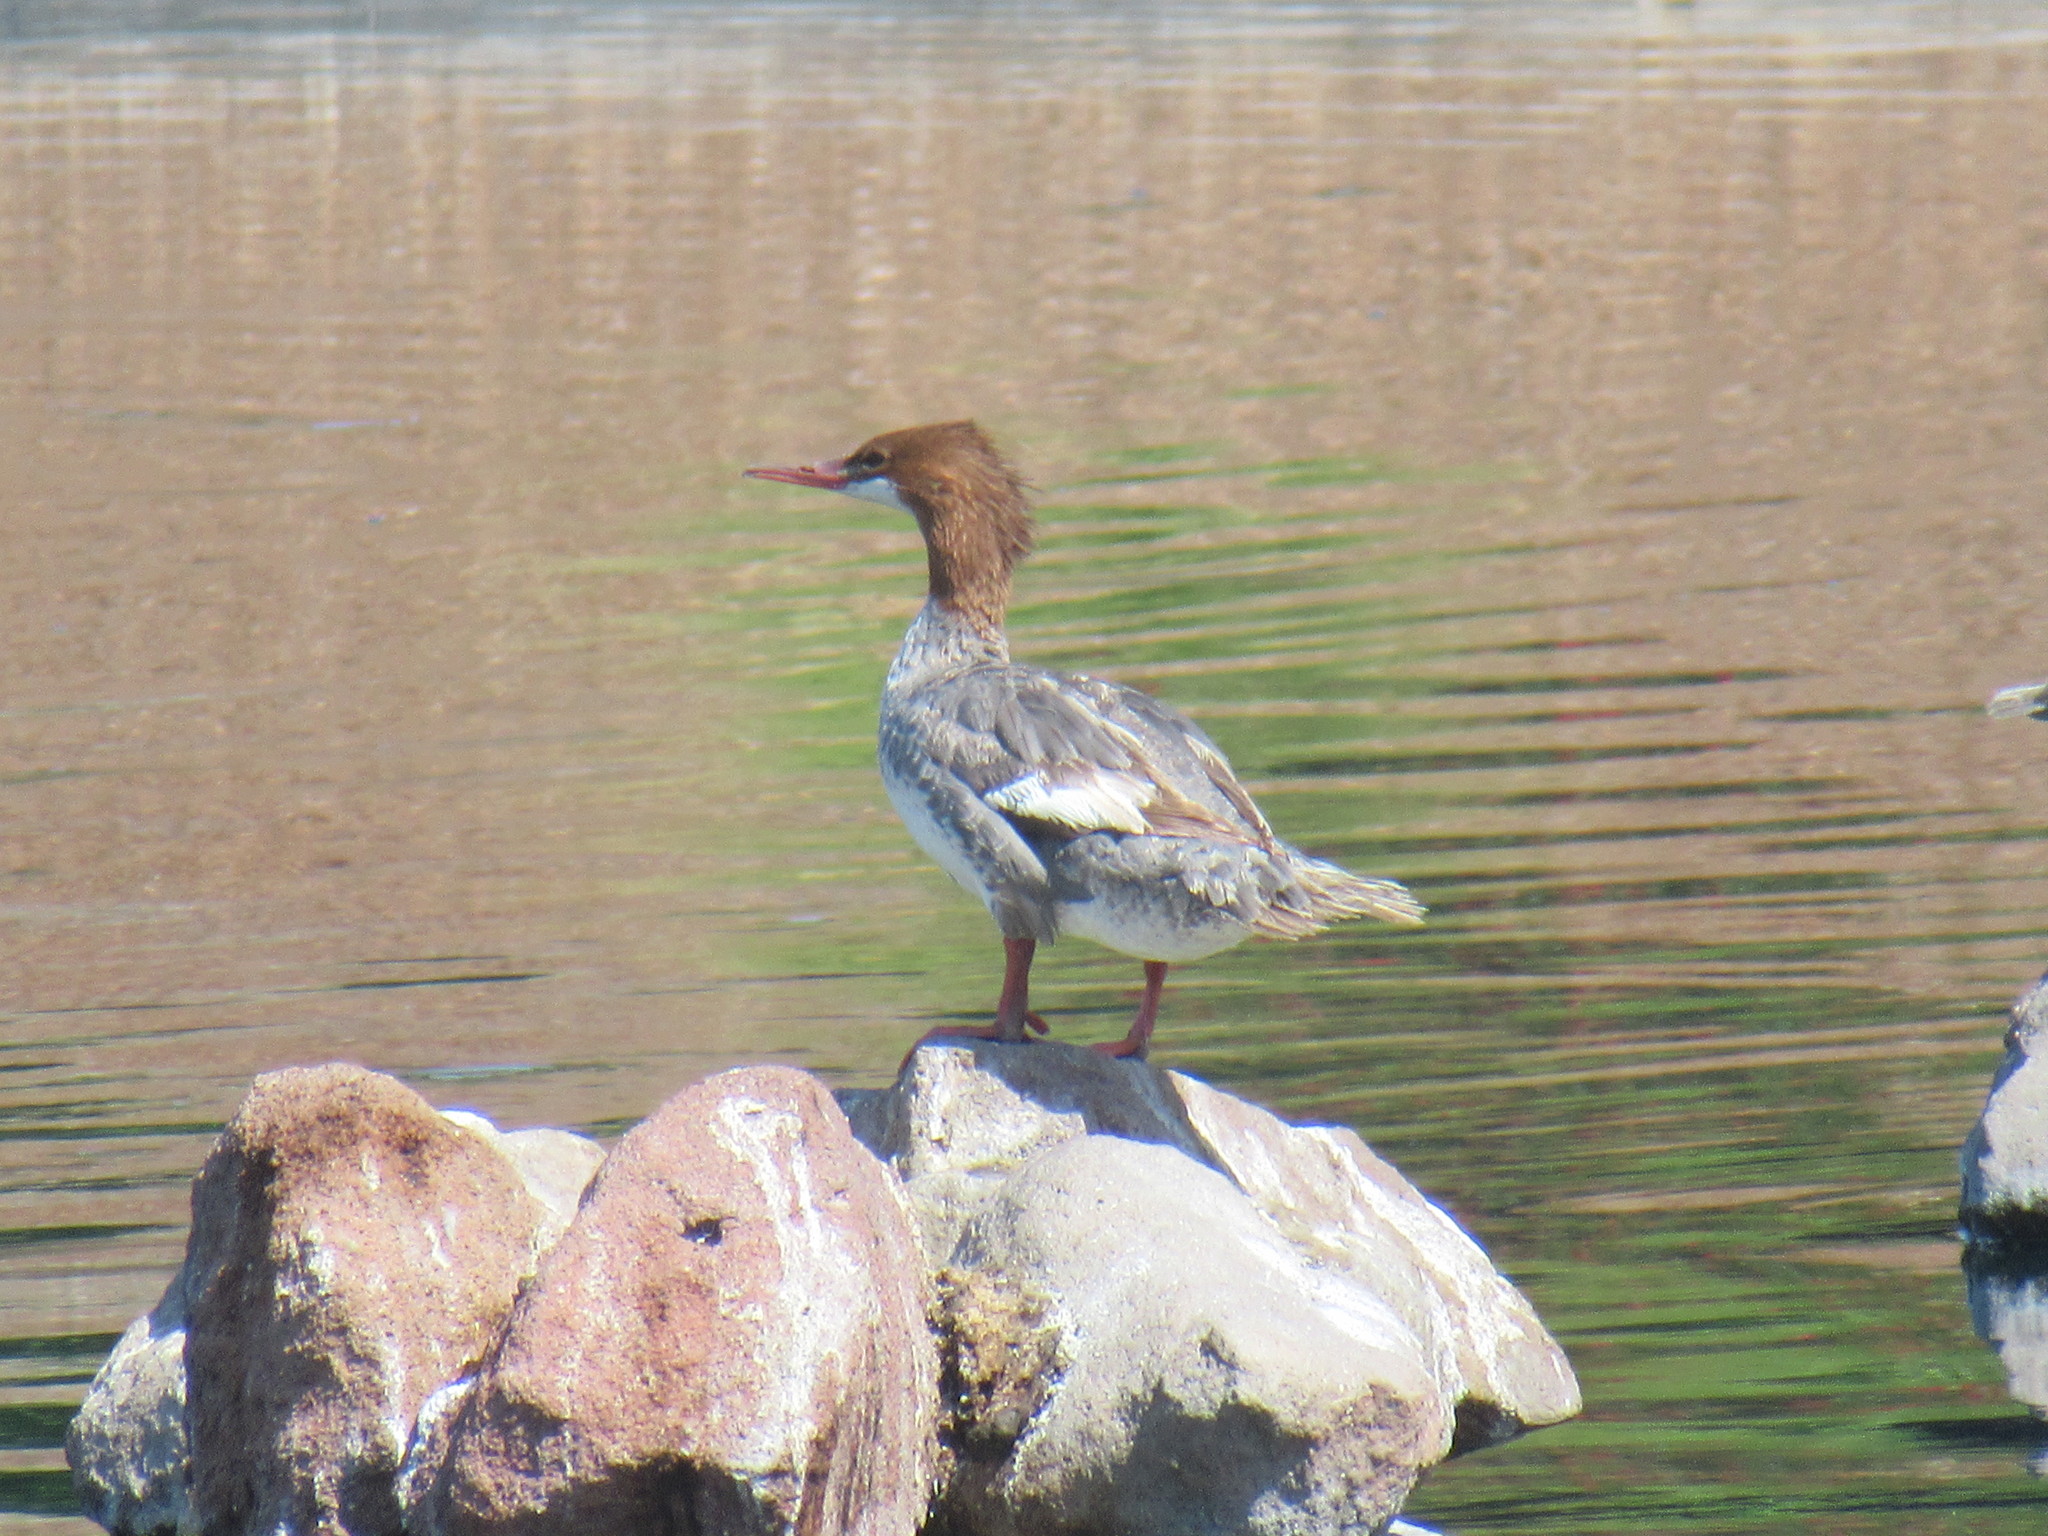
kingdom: Animalia
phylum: Chordata
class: Aves
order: Anseriformes
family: Anatidae
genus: Mergus
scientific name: Mergus merganser
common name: Common merganser
